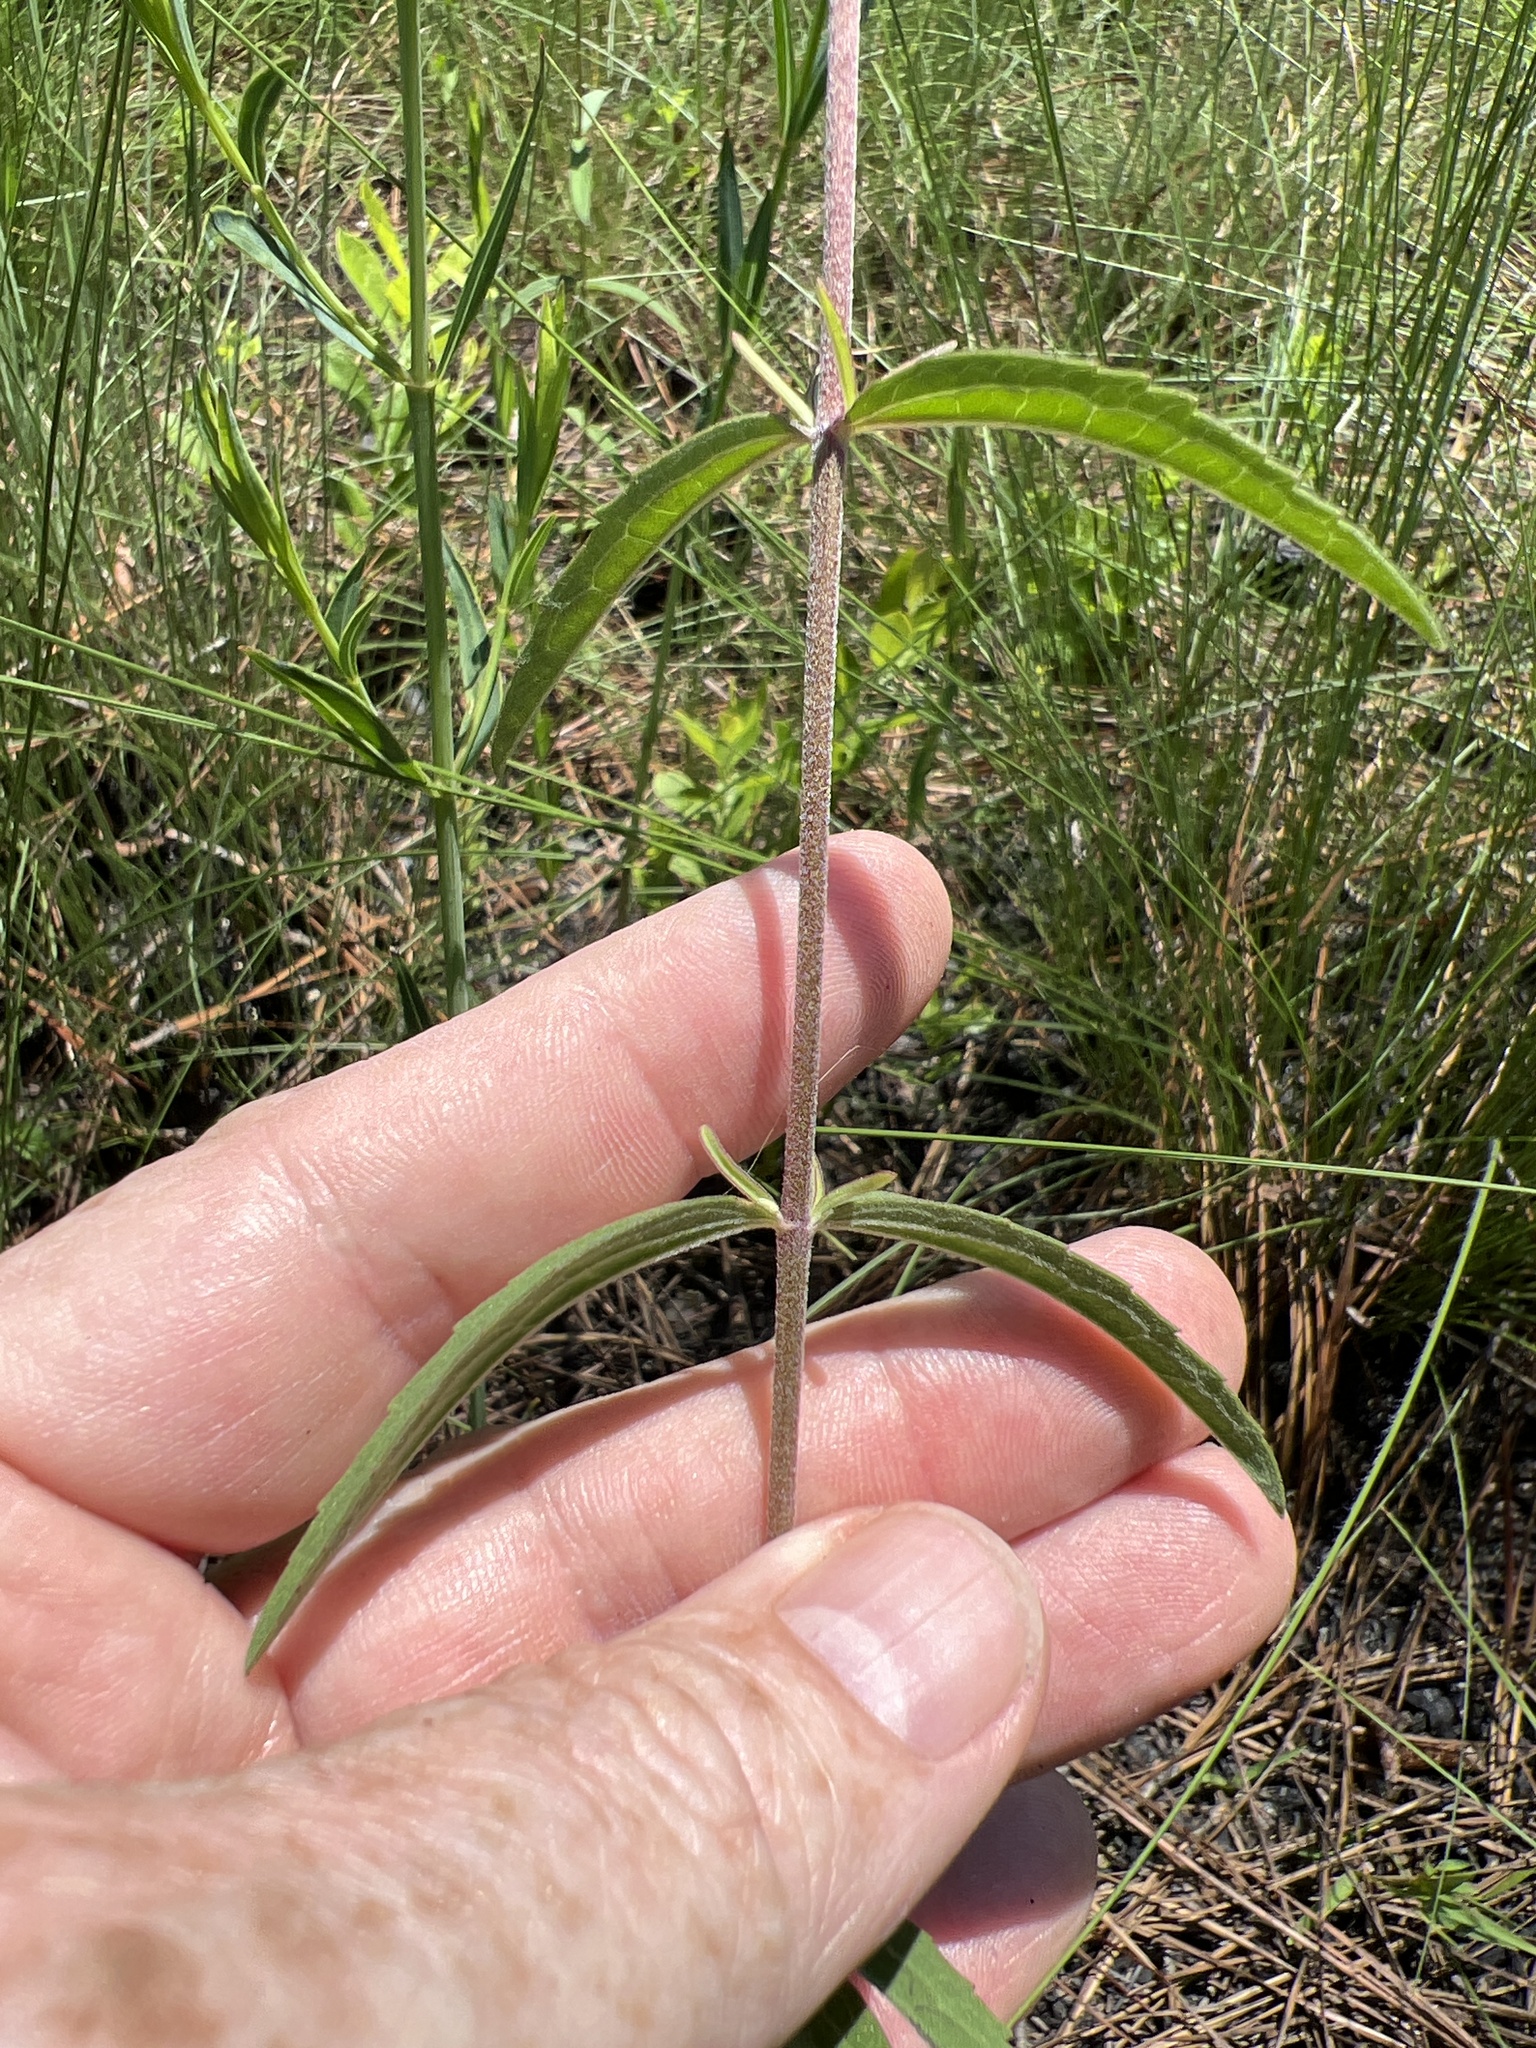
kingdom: Plantae
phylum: Tracheophyta
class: Magnoliopsida
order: Asterales
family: Asteraceae
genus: Eupatorium
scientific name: Eupatorium leucolepis
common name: Justiceweed
